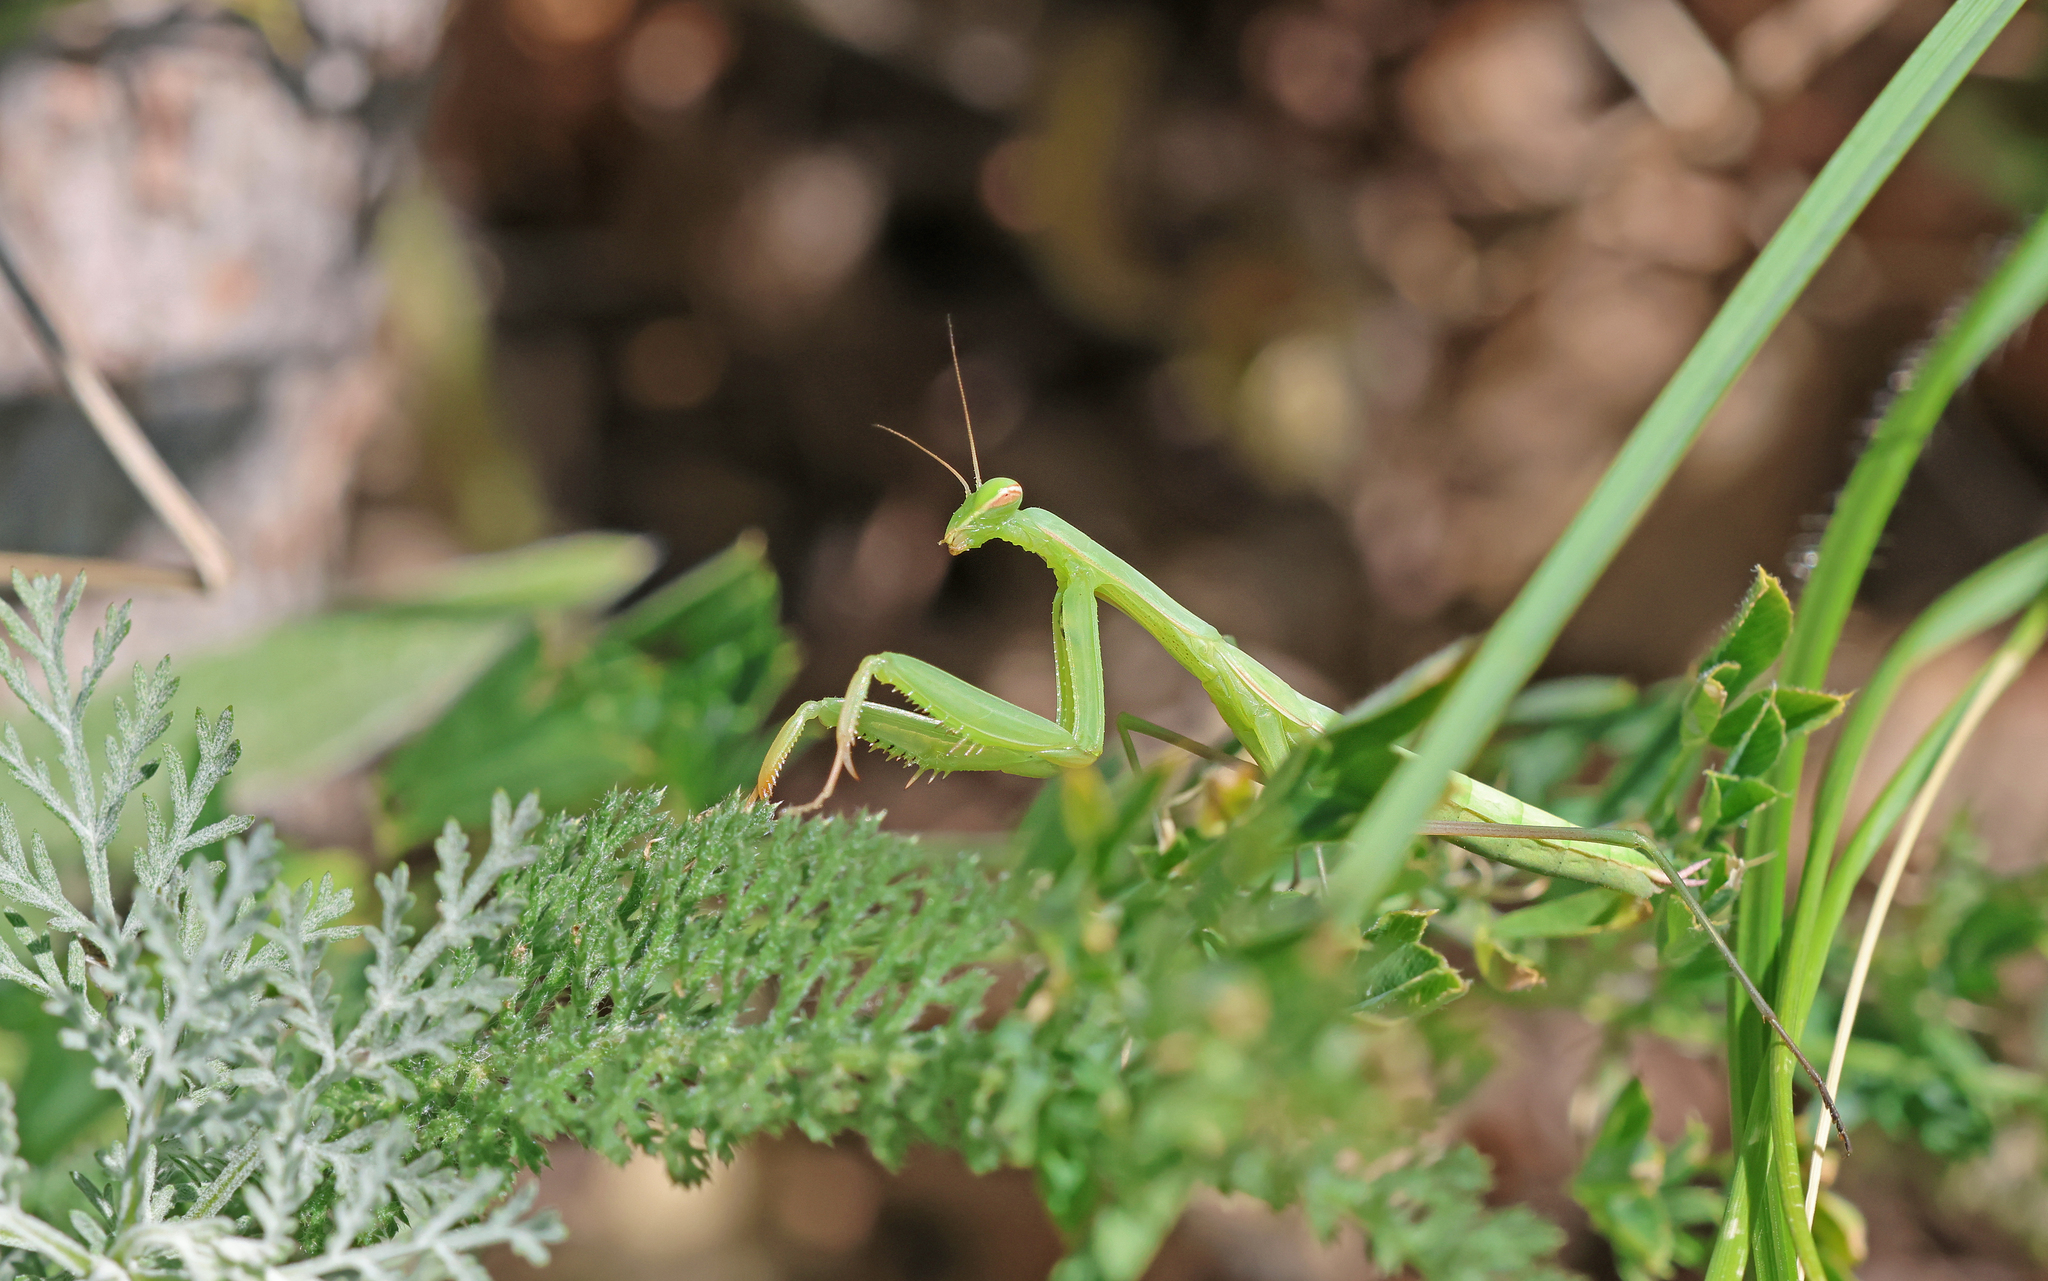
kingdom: Animalia
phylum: Arthropoda
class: Insecta
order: Mantodea
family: Mantidae
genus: Mantis
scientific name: Mantis religiosa
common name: Praying mantis
